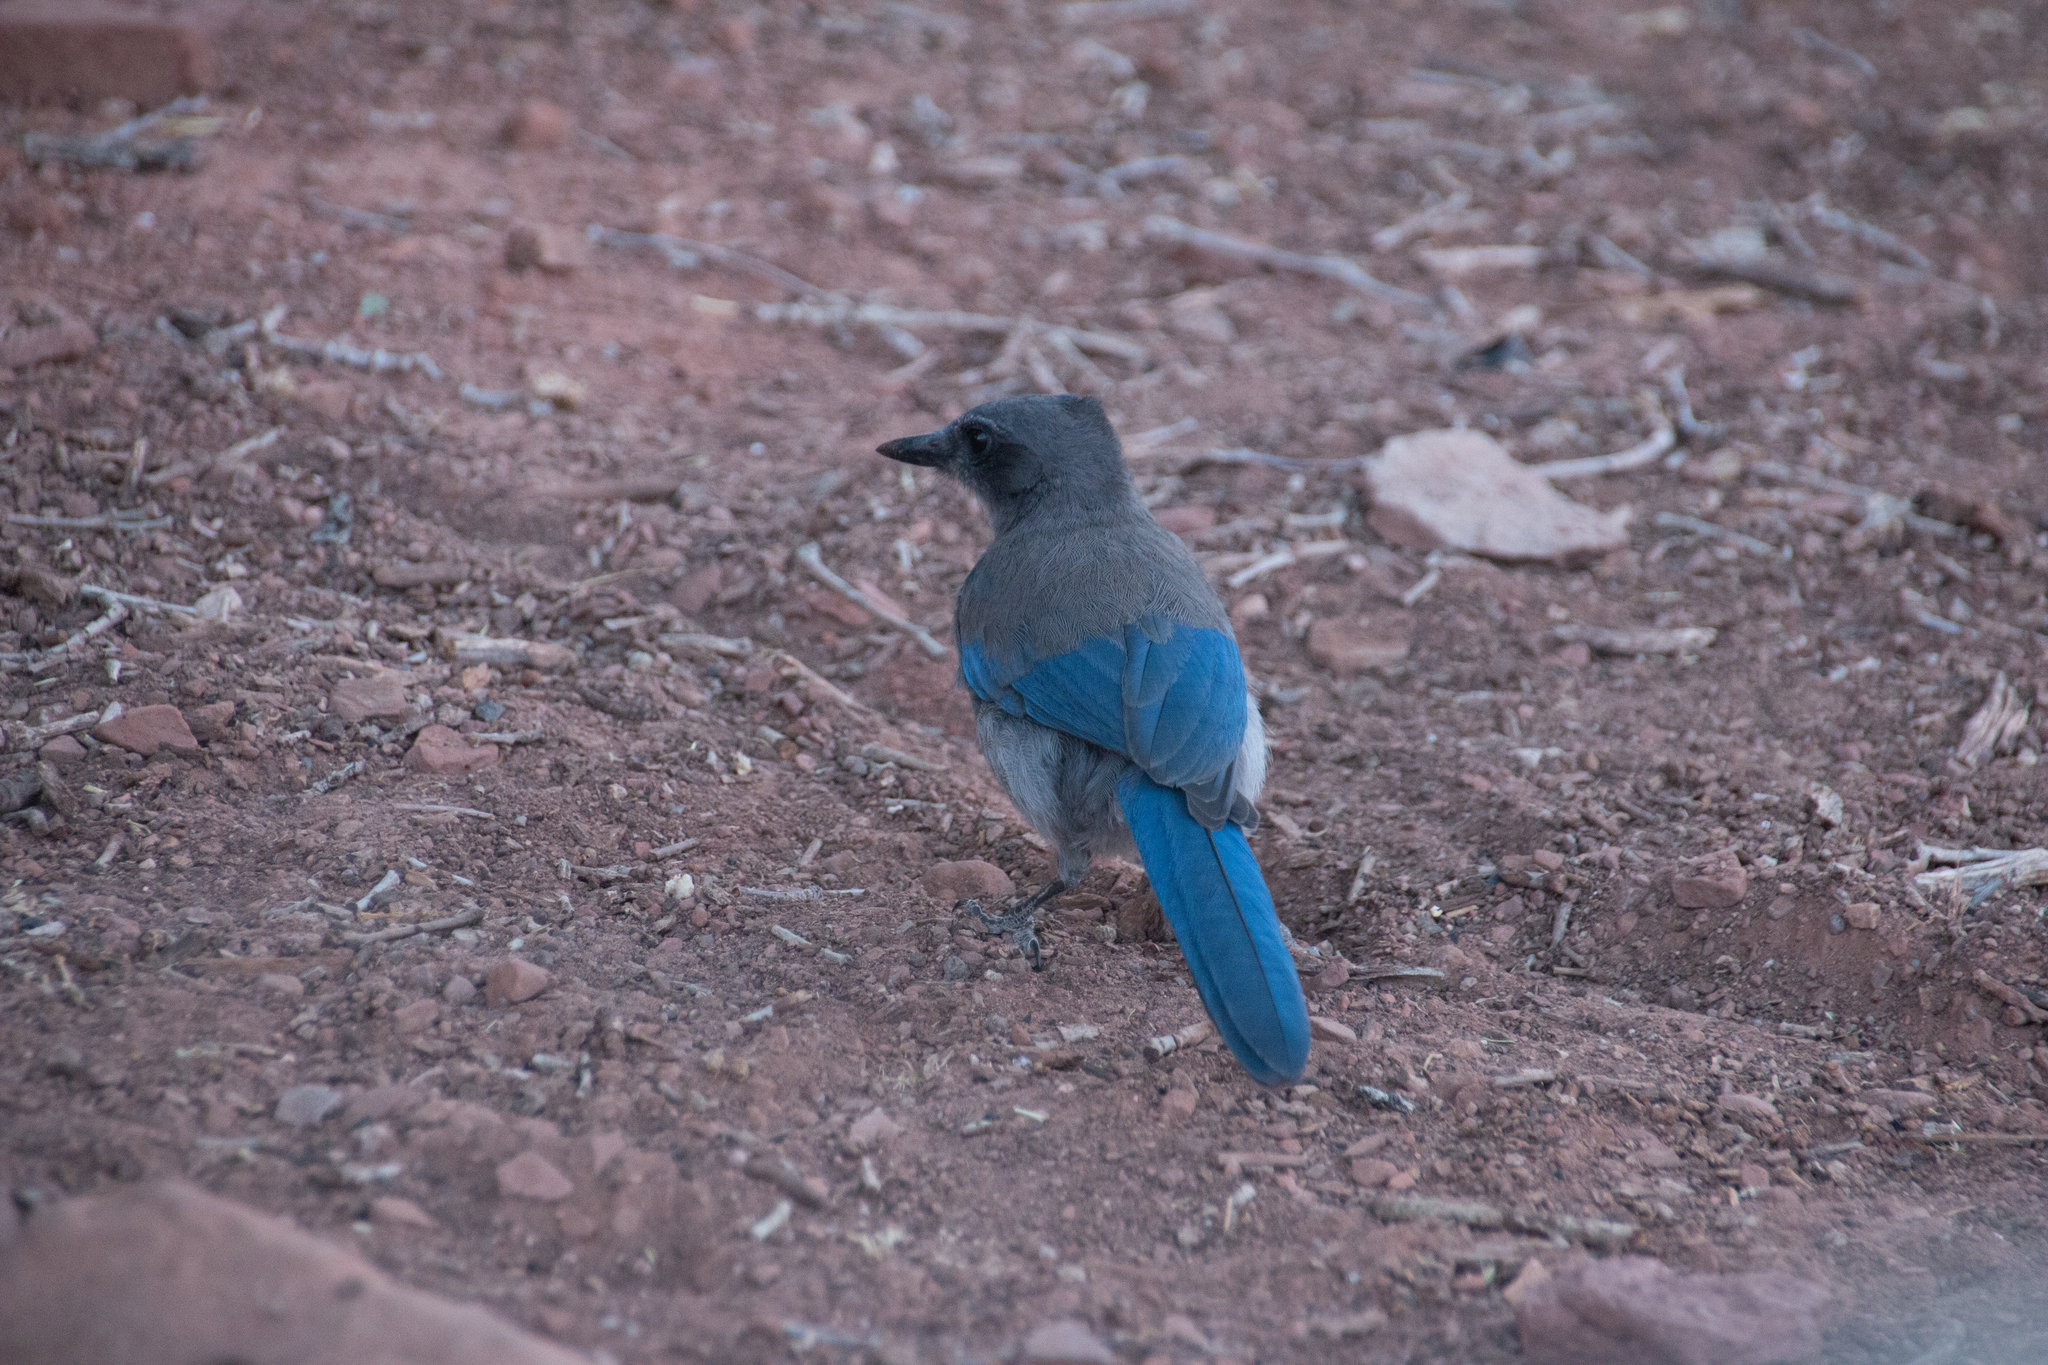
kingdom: Animalia
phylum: Chordata
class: Aves
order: Passeriformes
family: Corvidae
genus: Aphelocoma
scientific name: Aphelocoma woodhouseii
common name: Woodhouse's scrub-jay
